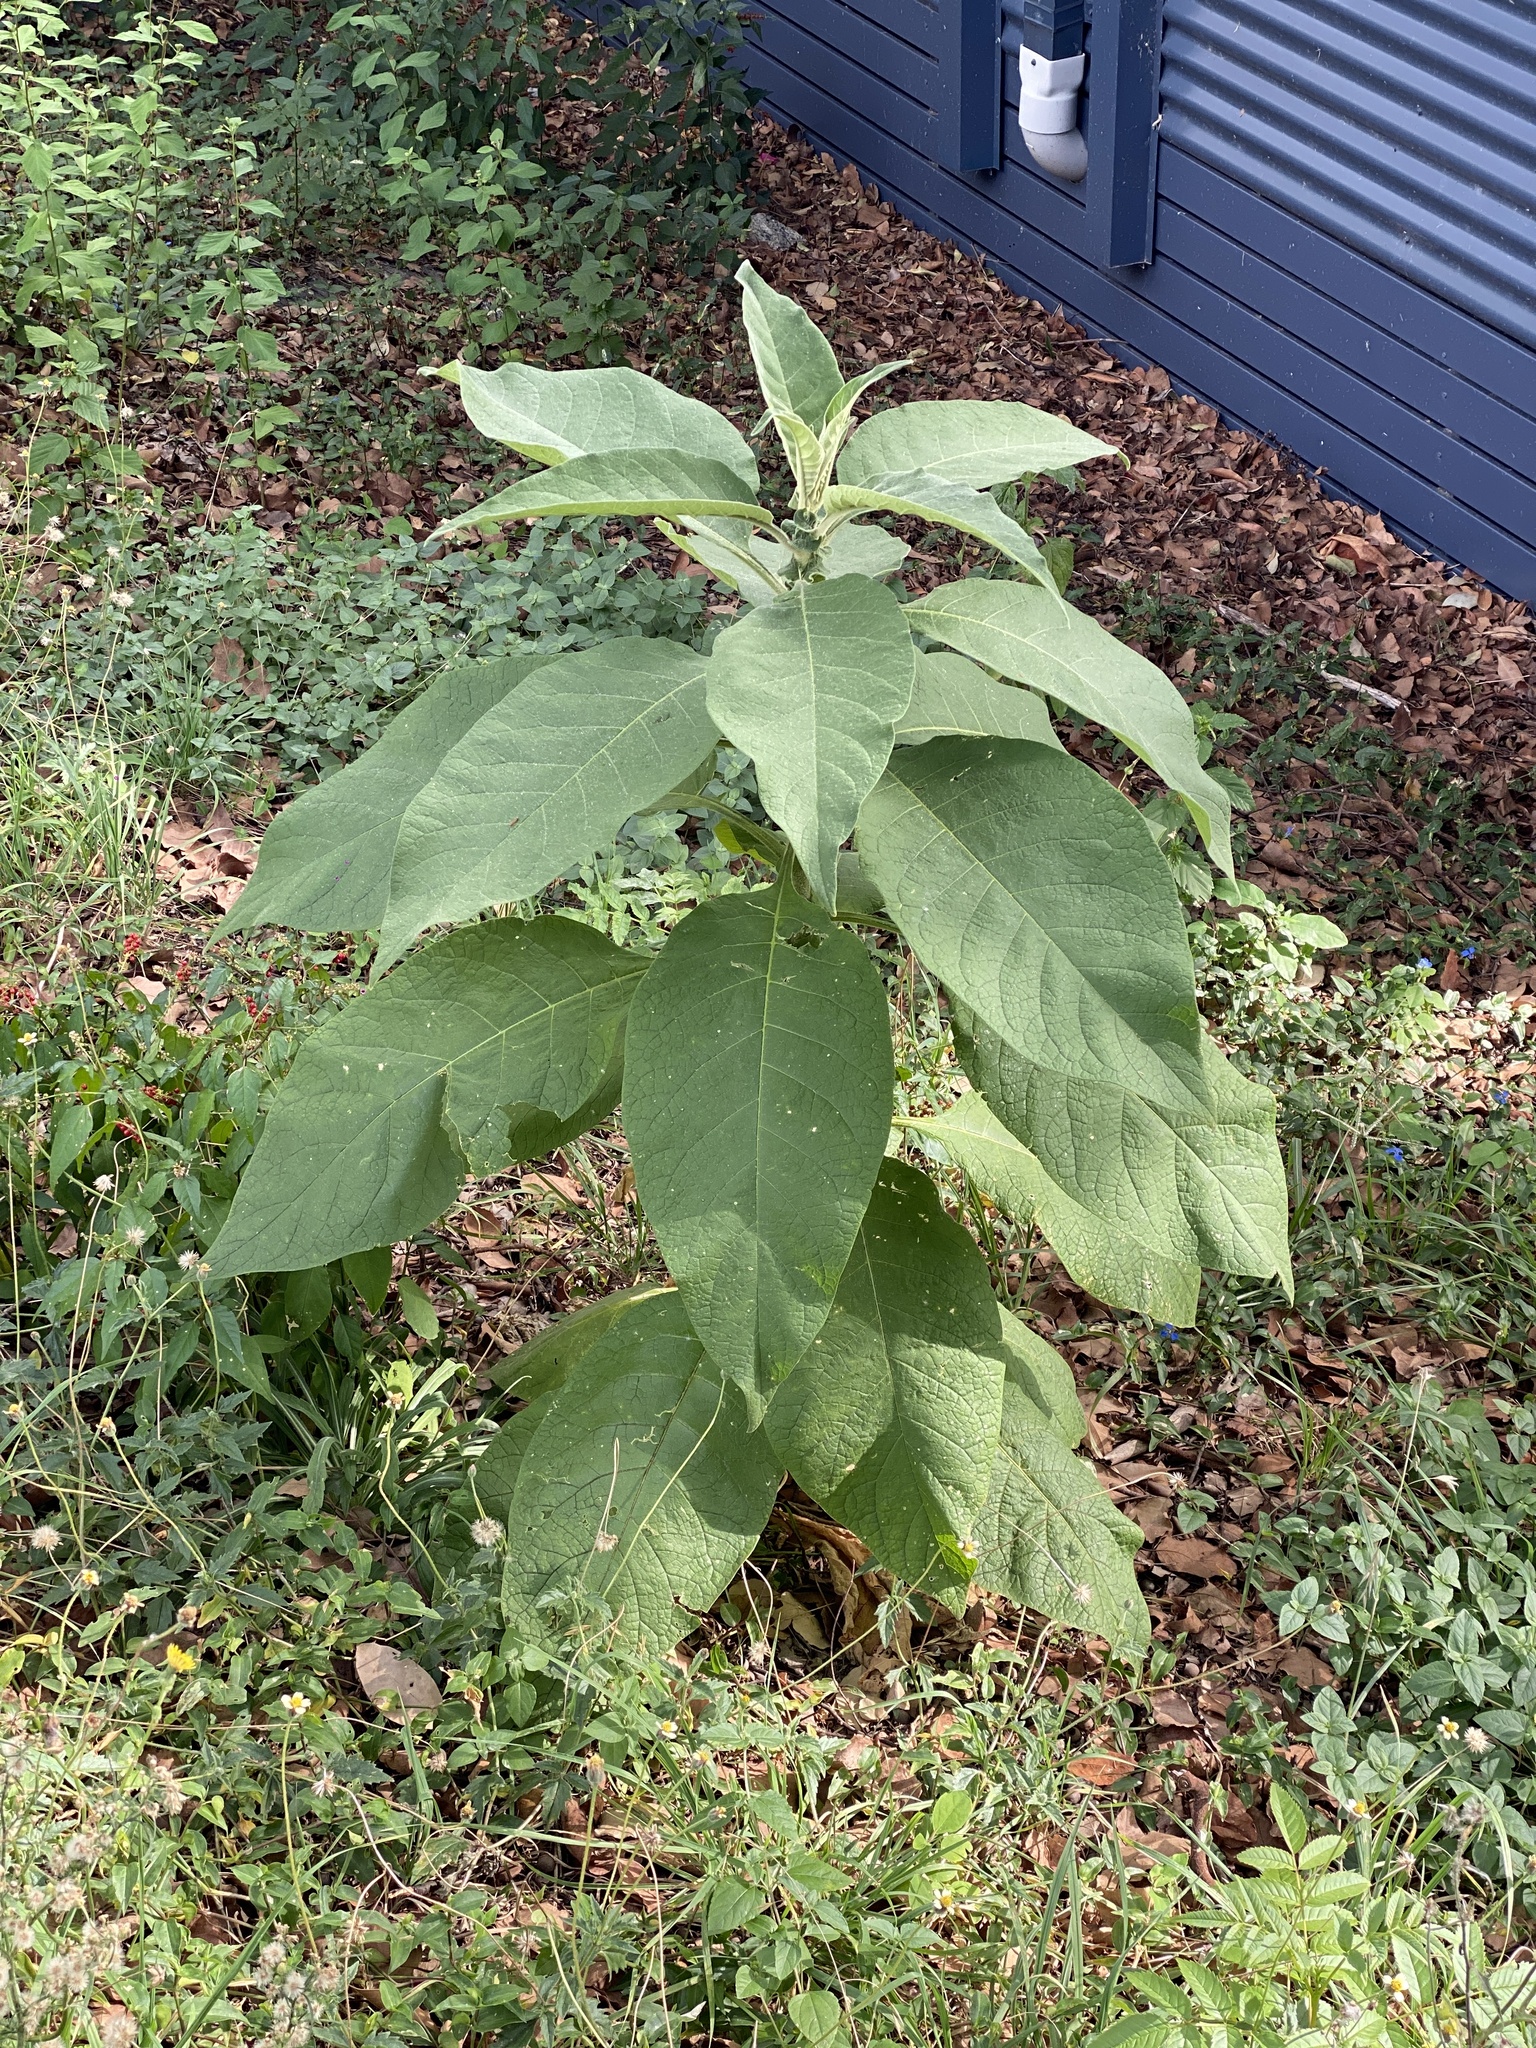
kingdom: Plantae
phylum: Tracheophyta
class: Magnoliopsida
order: Solanales
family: Solanaceae
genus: Solanum
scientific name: Solanum mauritianum
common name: Earleaf nightshade
